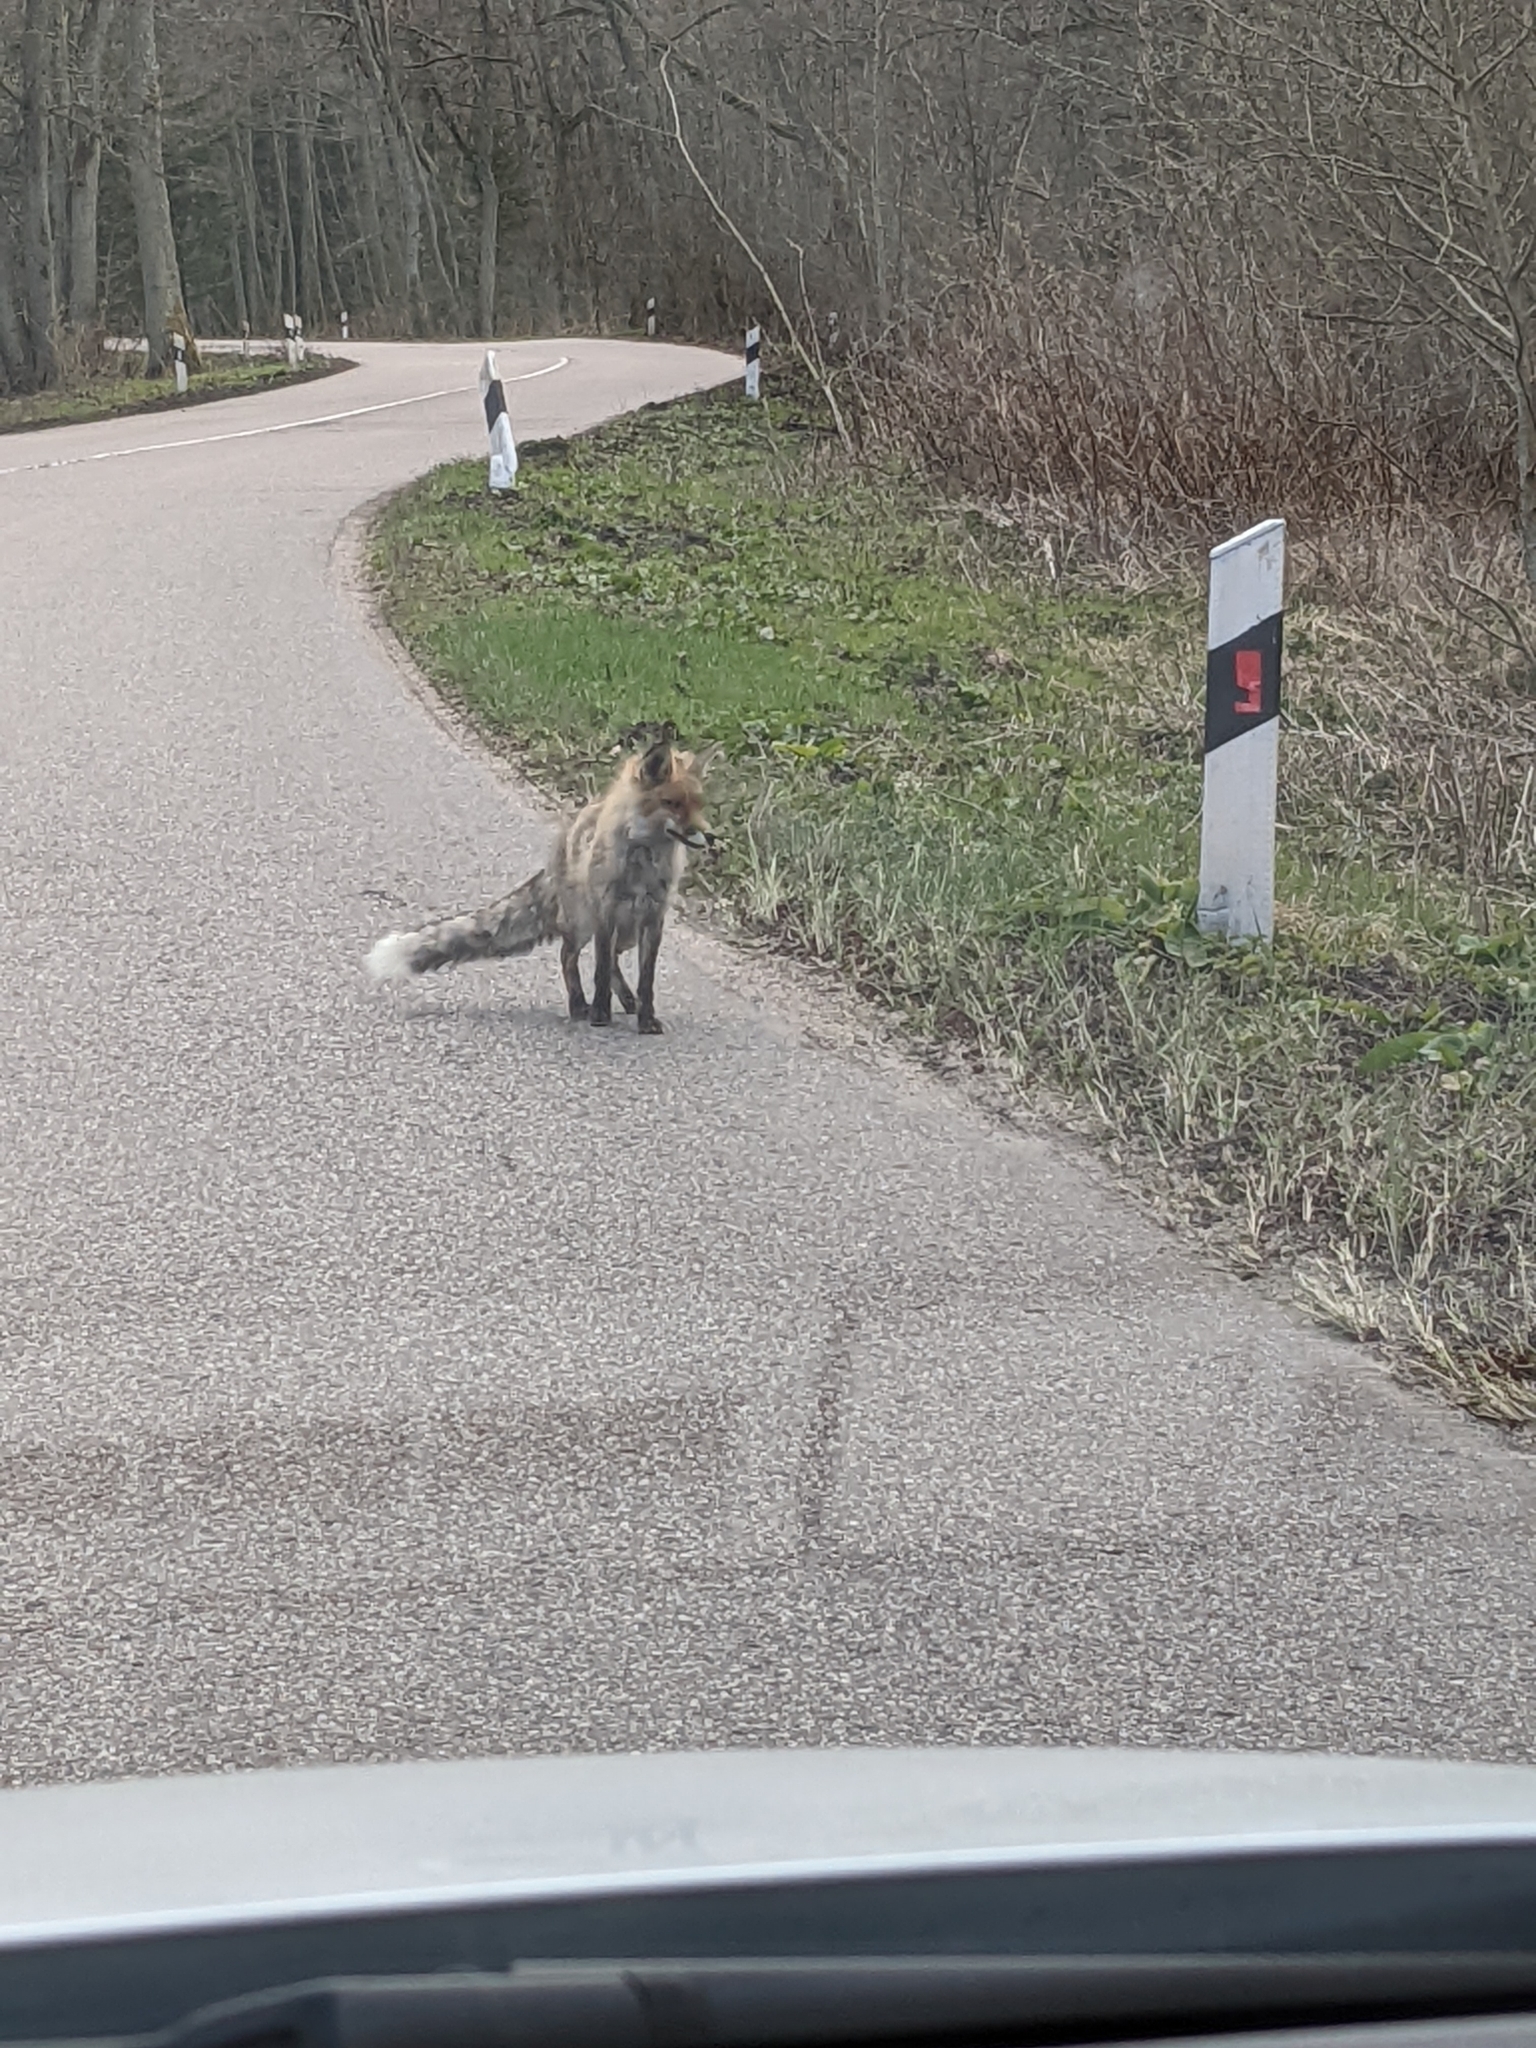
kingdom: Animalia
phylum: Chordata
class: Mammalia
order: Carnivora
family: Canidae
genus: Vulpes
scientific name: Vulpes vulpes
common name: Red fox
